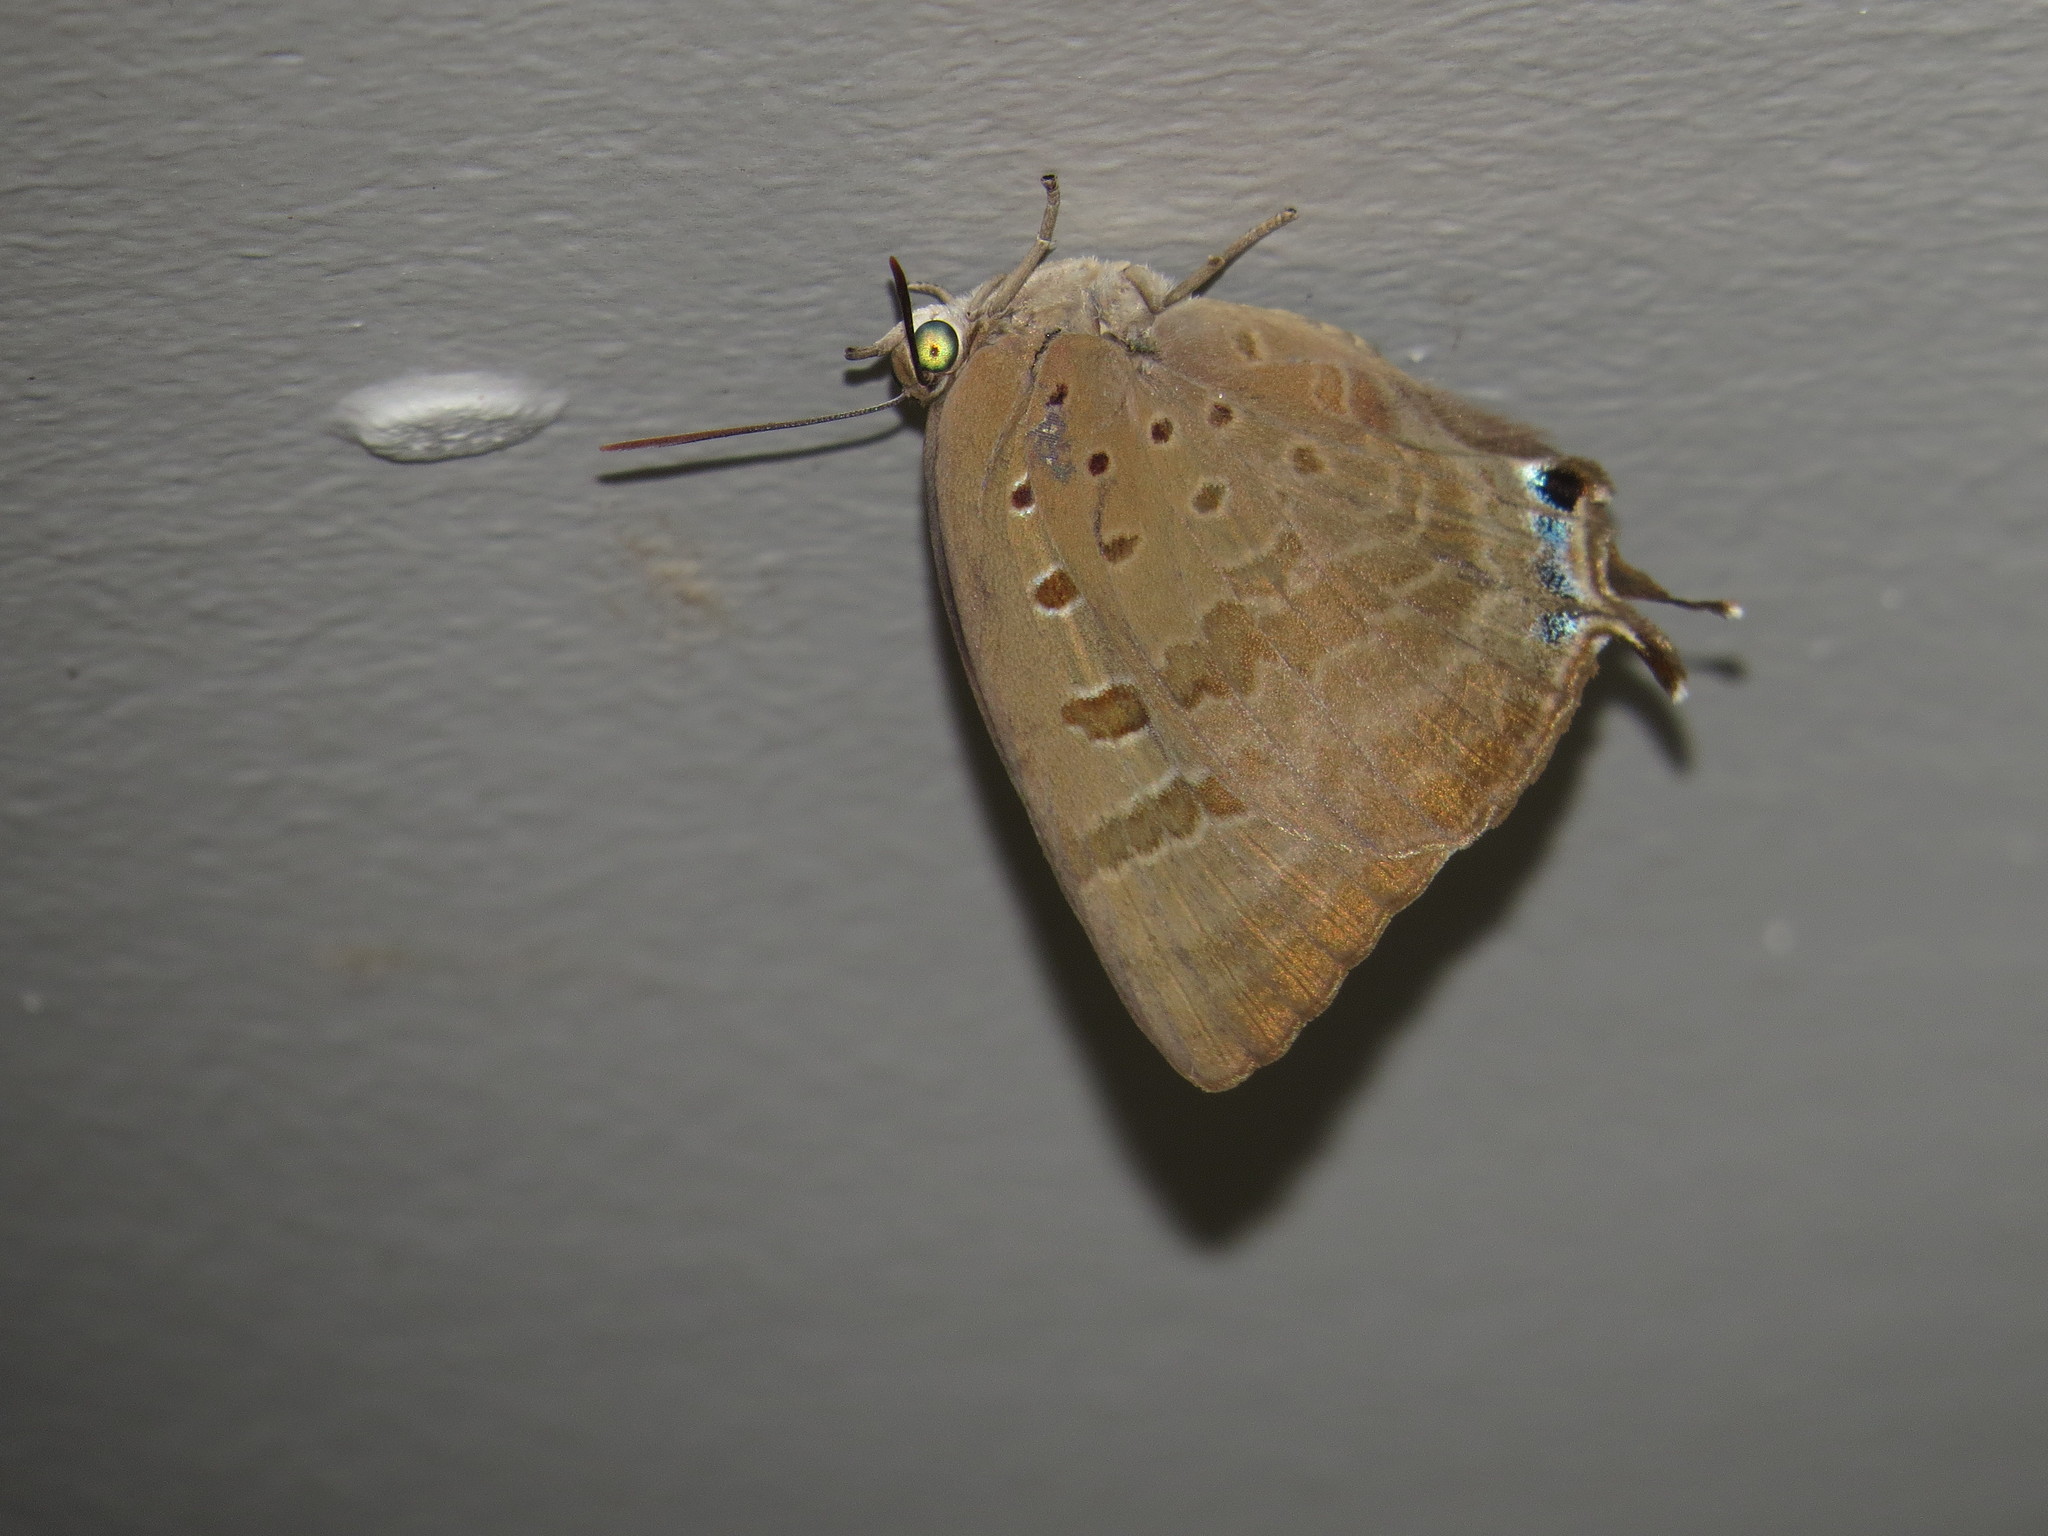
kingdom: Animalia
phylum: Arthropoda
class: Insecta
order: Lepidoptera
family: Lycaenidae
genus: Arhopala
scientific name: Arhopala
